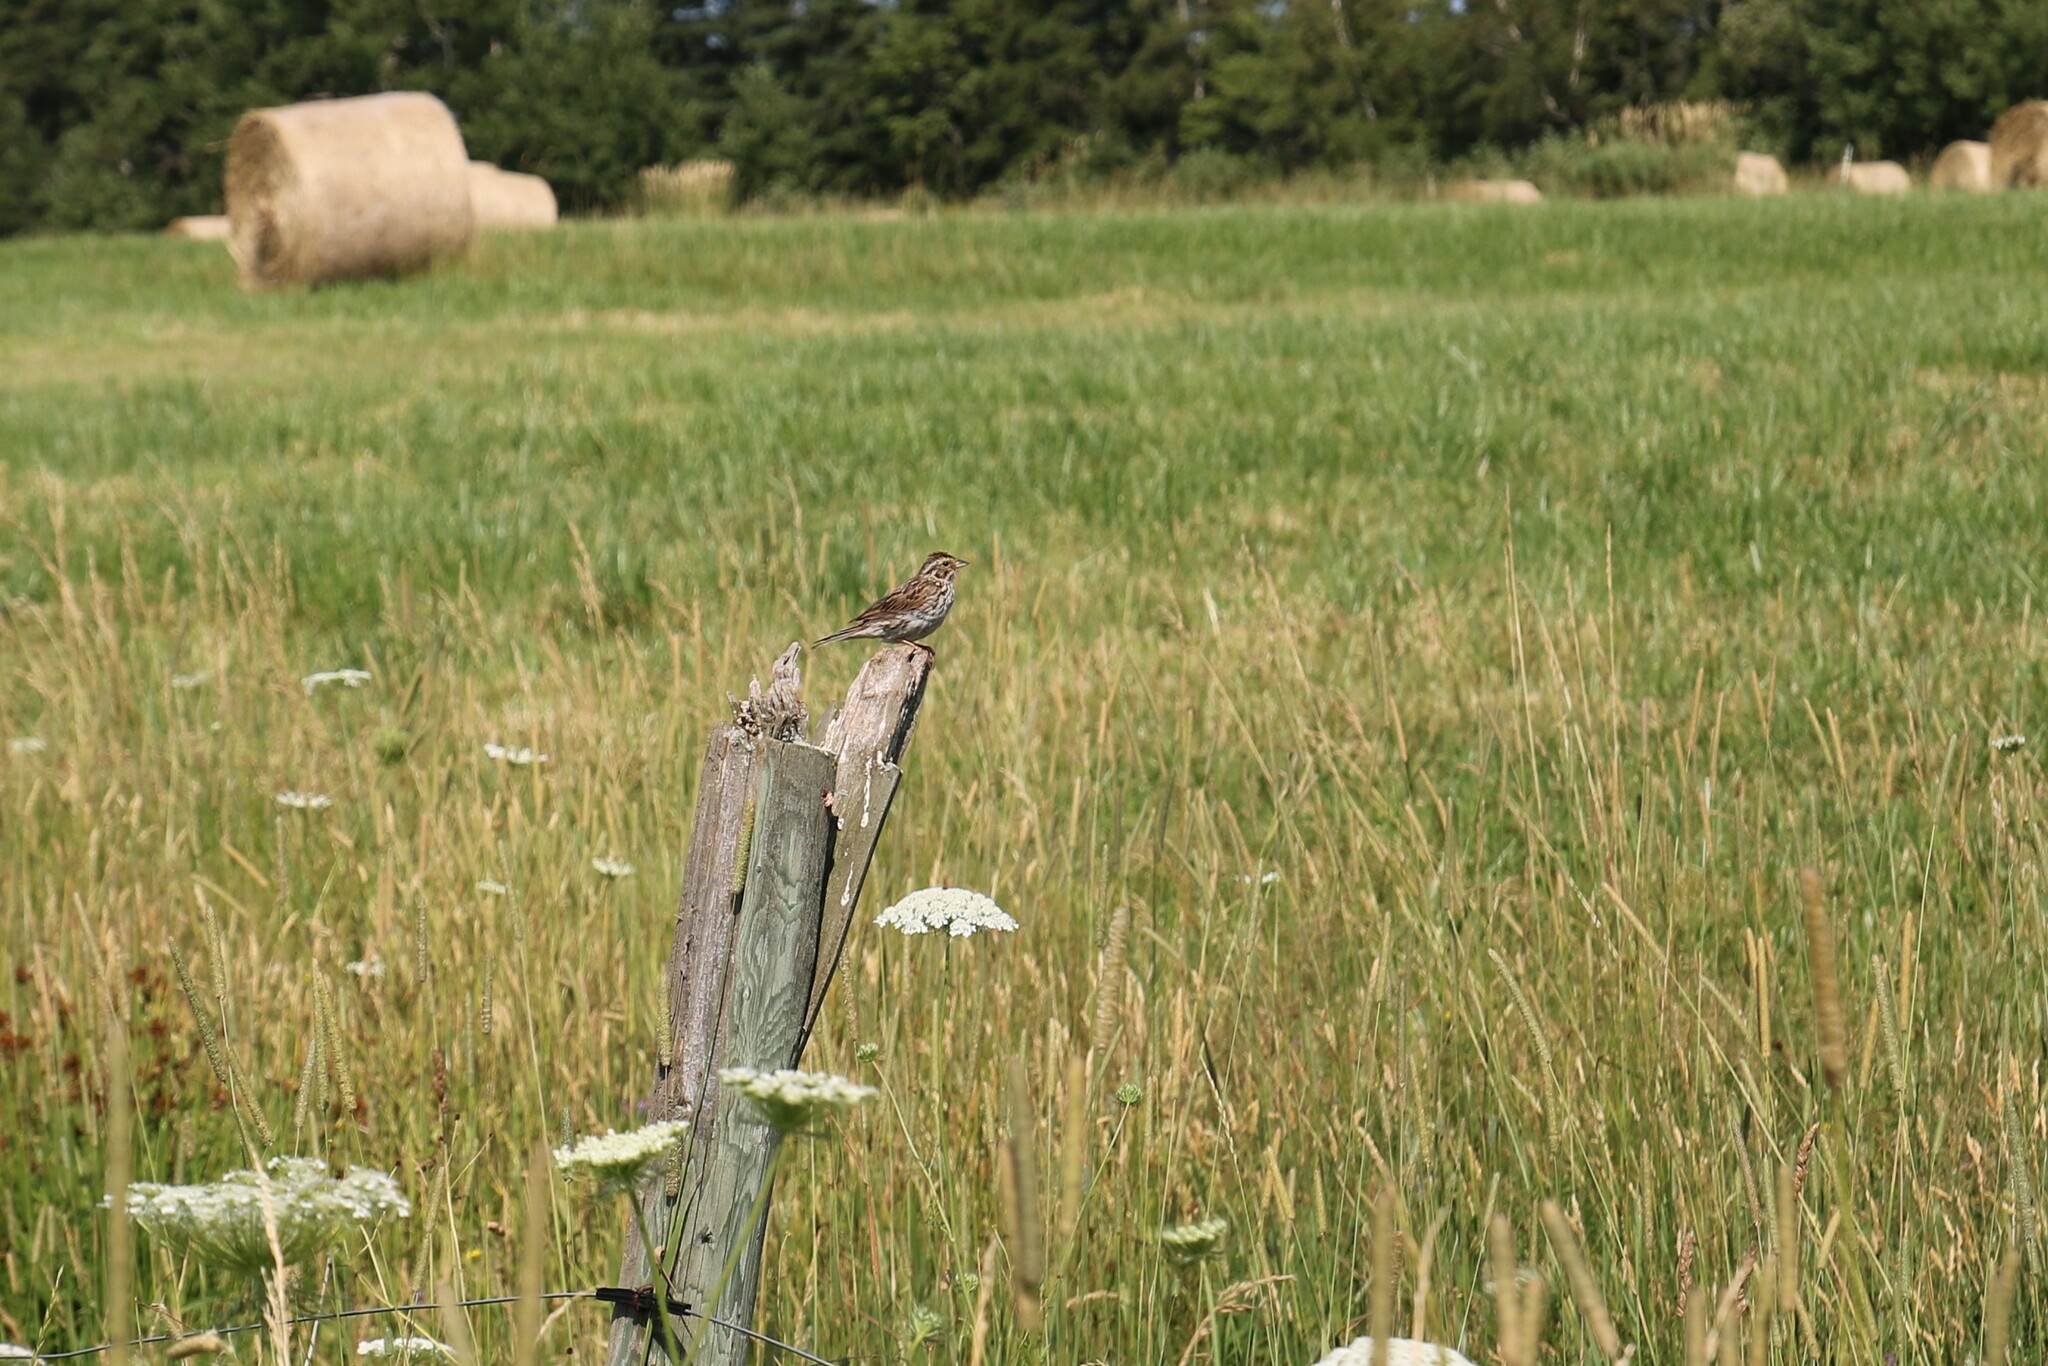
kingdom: Animalia
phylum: Chordata
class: Aves
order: Passeriformes
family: Passerellidae
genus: Passerculus
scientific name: Passerculus sandwichensis
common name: Savannah sparrow
